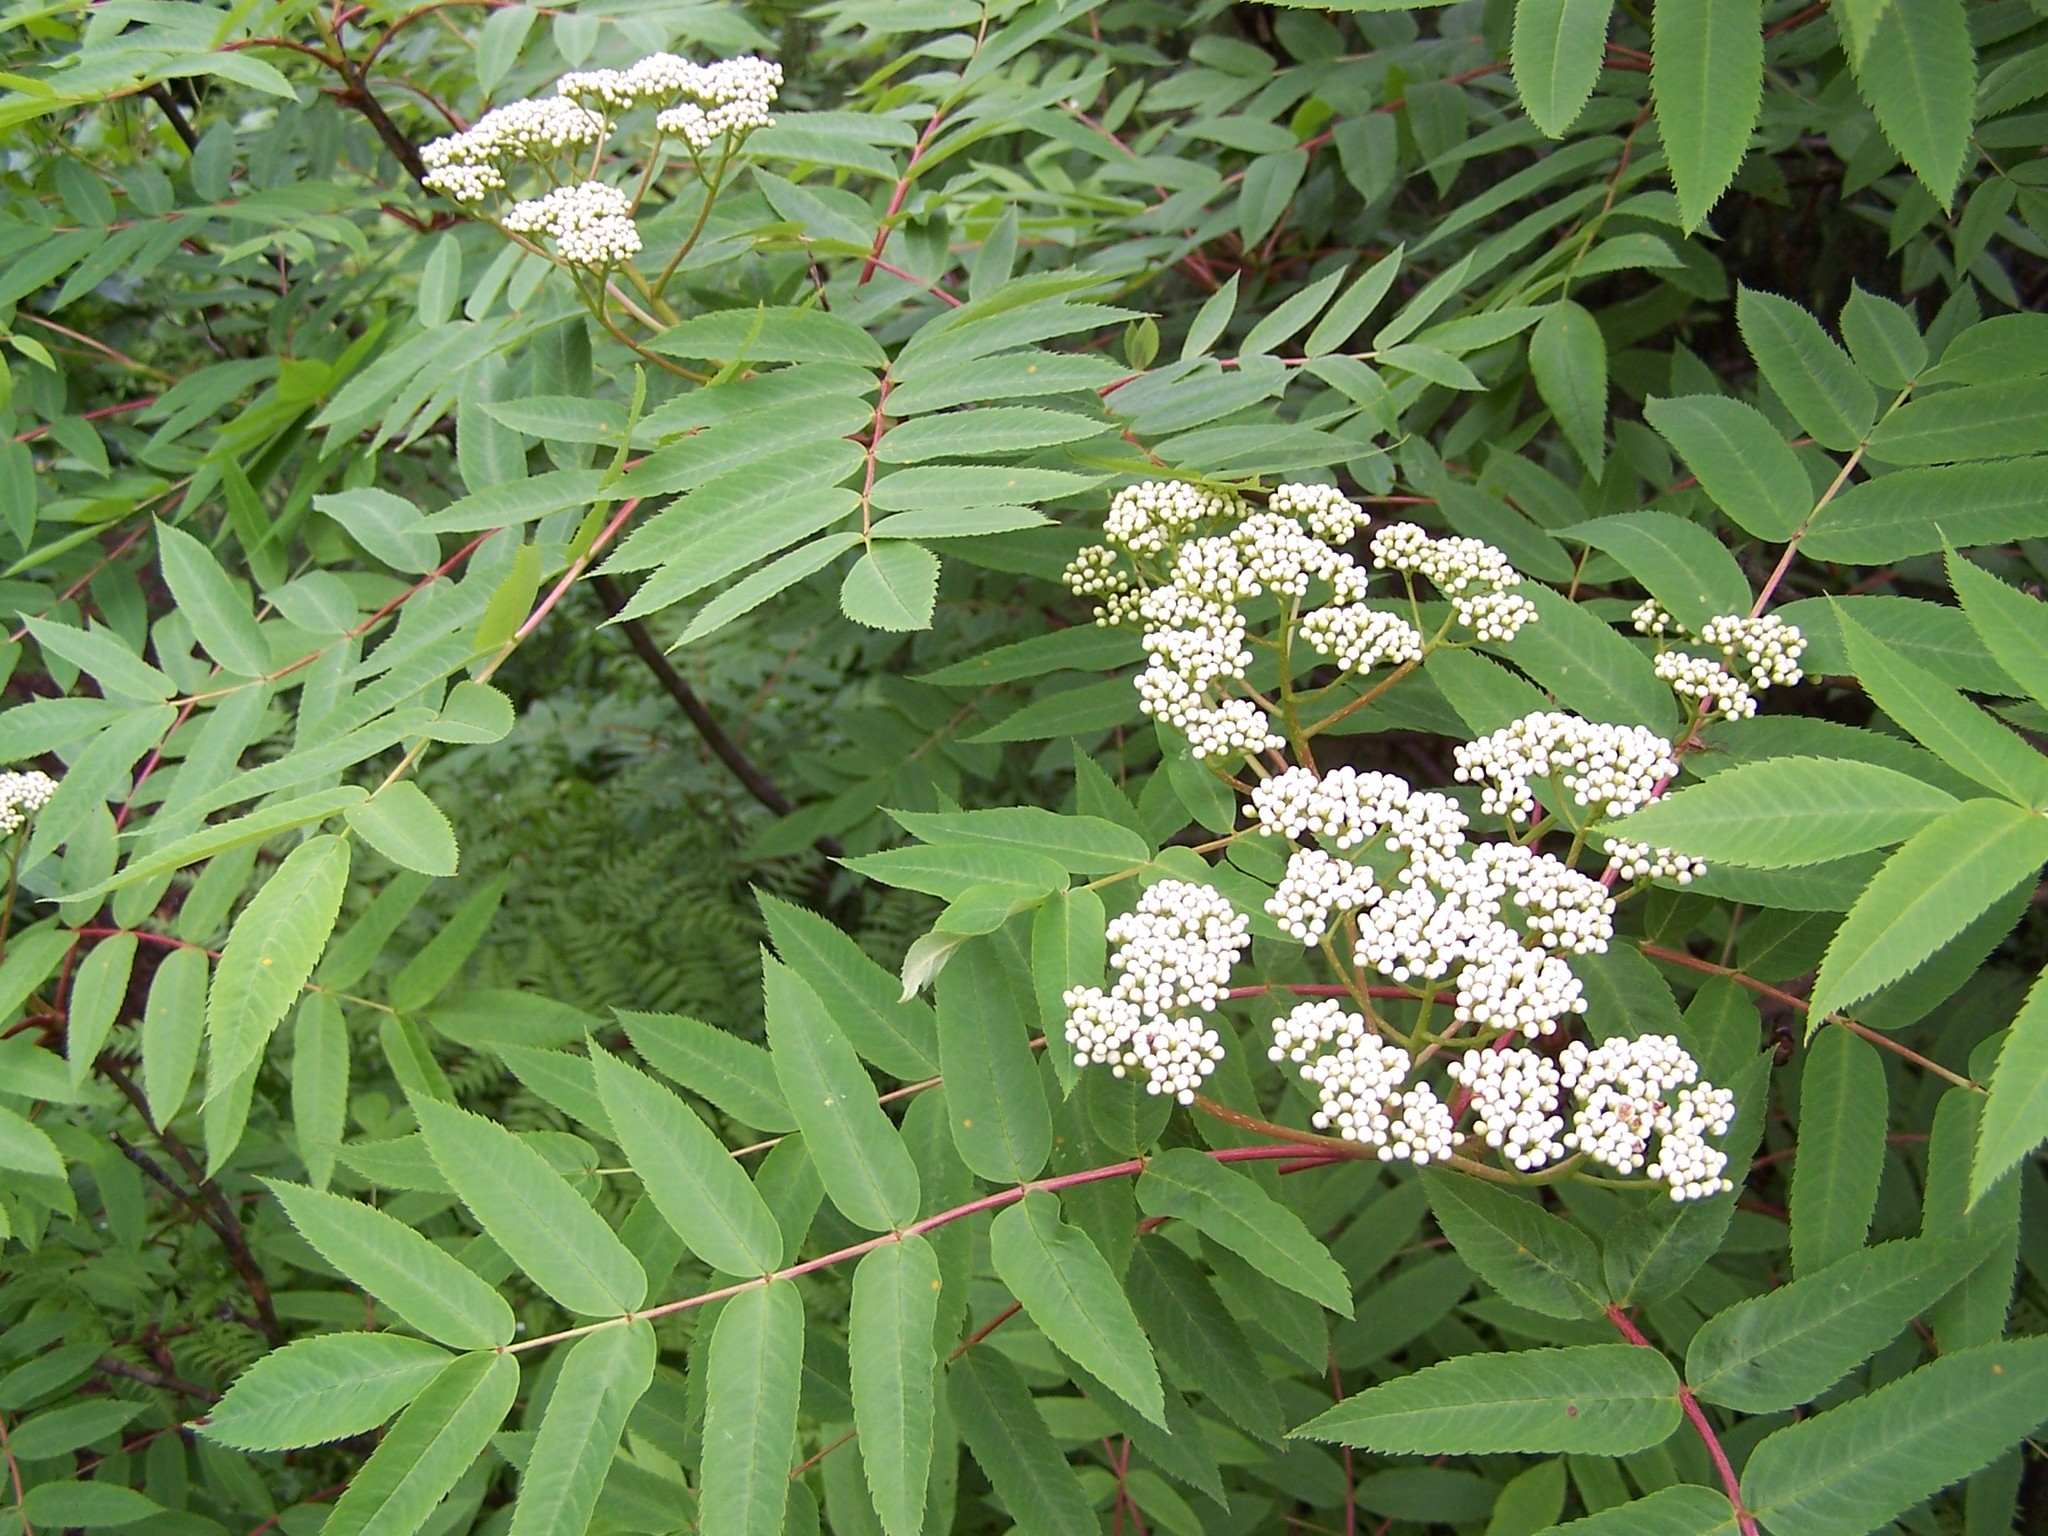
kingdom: Plantae
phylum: Tracheophyta
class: Magnoliopsida
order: Rosales
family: Rosaceae
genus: Sorbus
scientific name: Sorbus americana
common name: American mountain-ash
